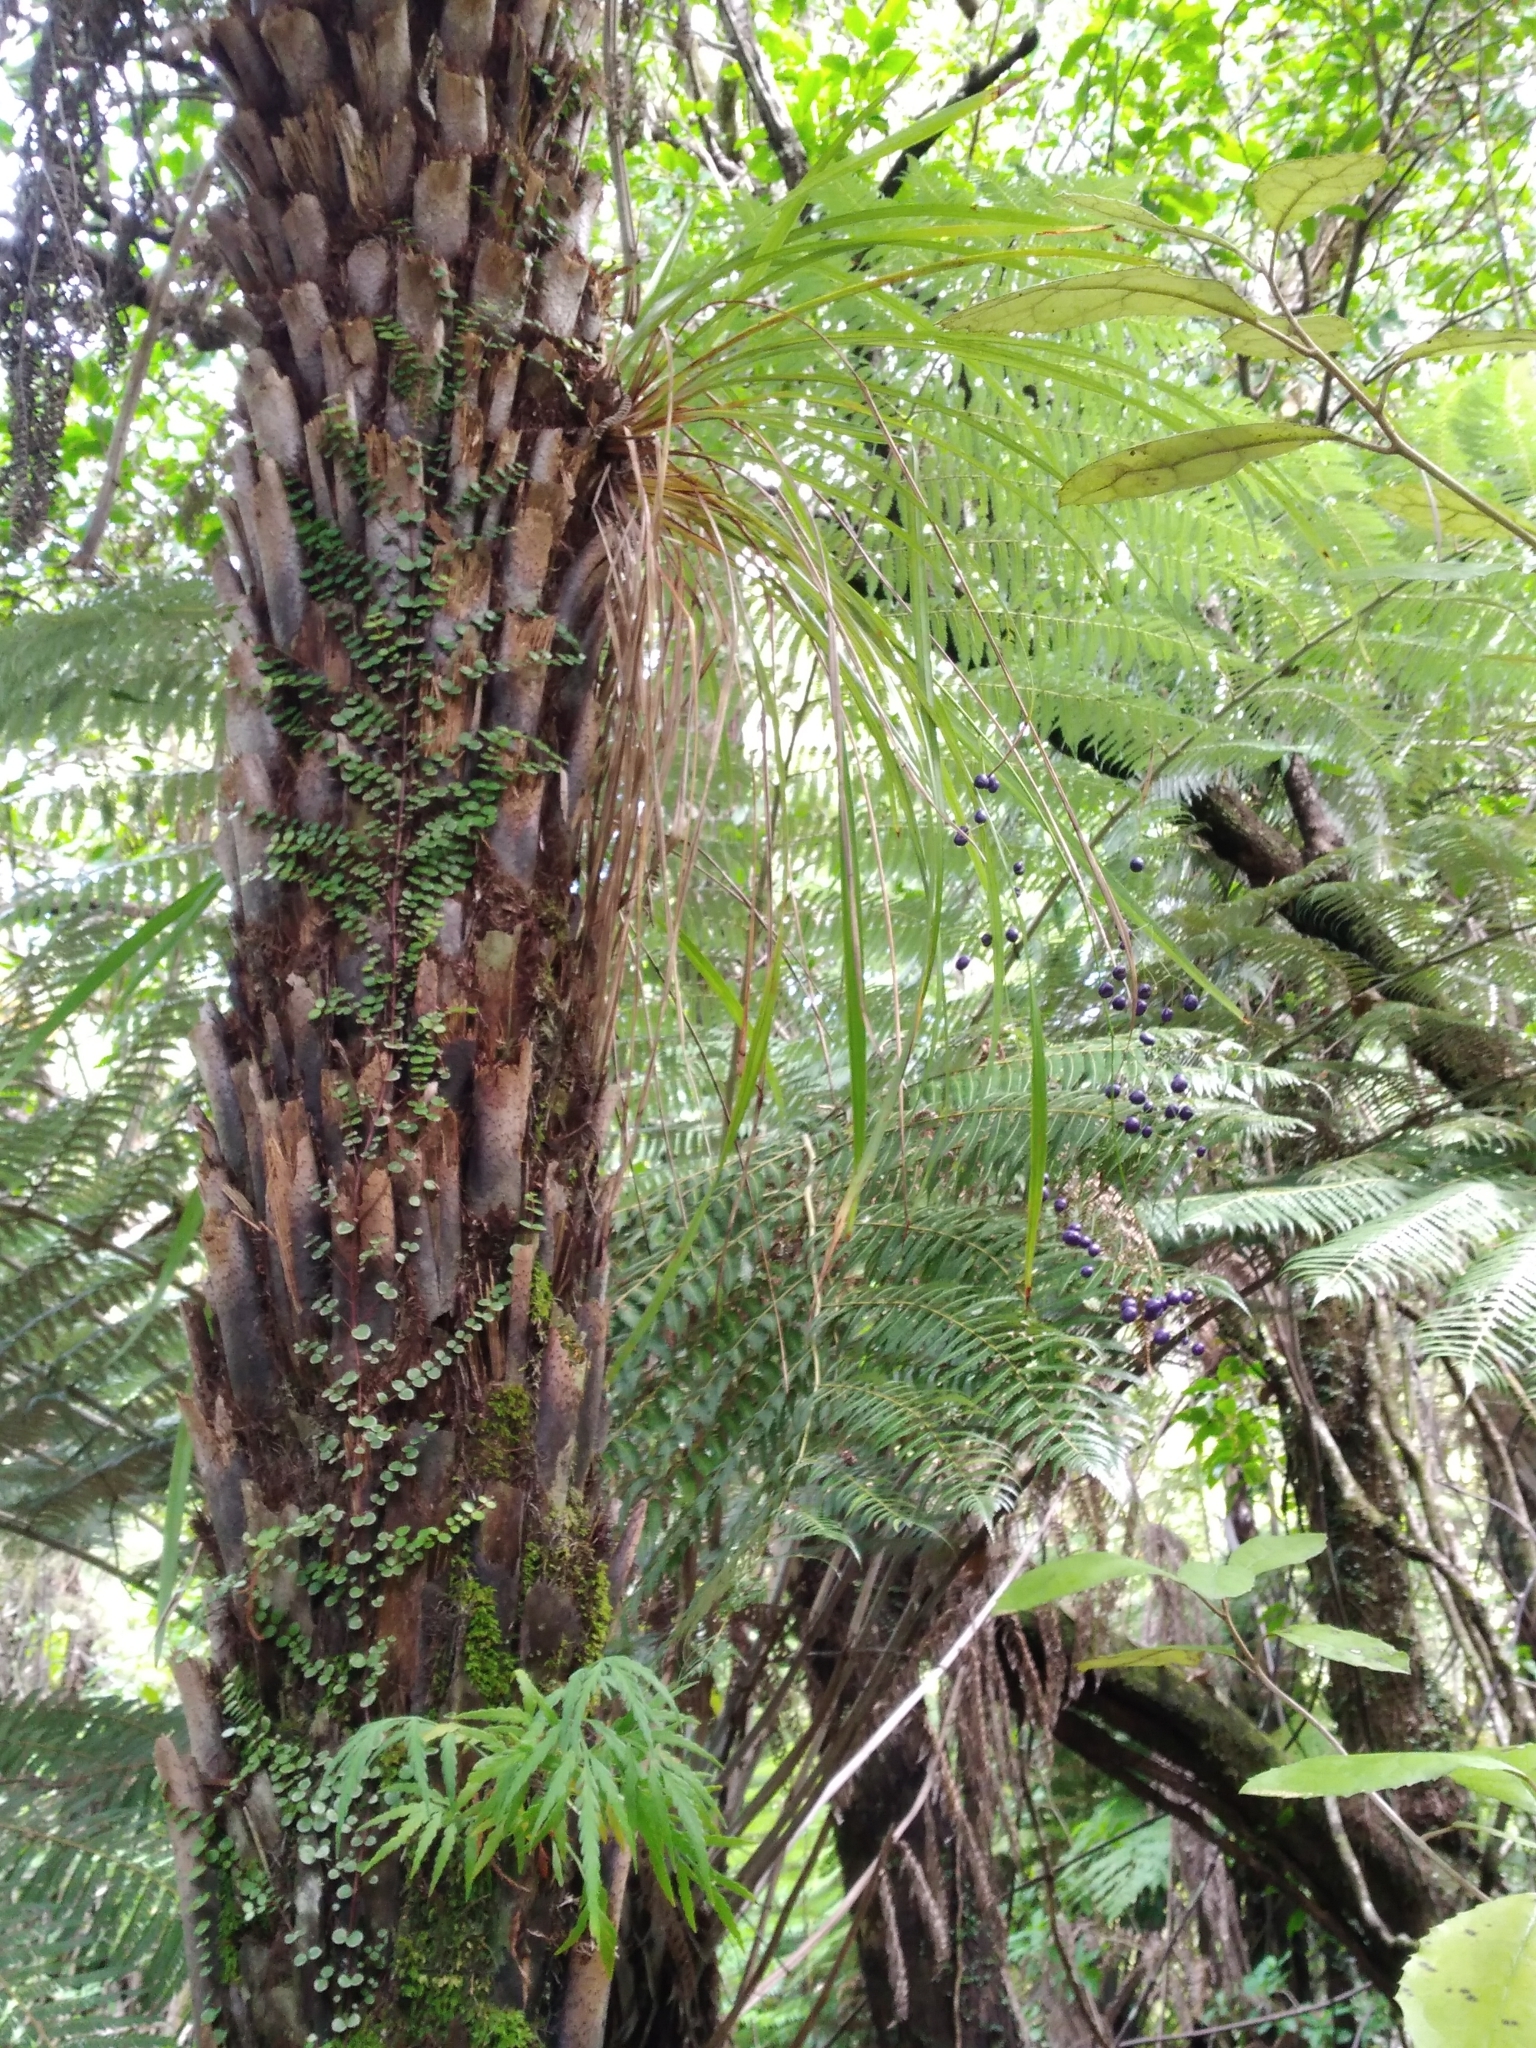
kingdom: Plantae
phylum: Tracheophyta
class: Liliopsida
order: Asparagales
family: Asphodelaceae
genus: Dianella
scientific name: Dianella nigra
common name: New zealand-blueberry
